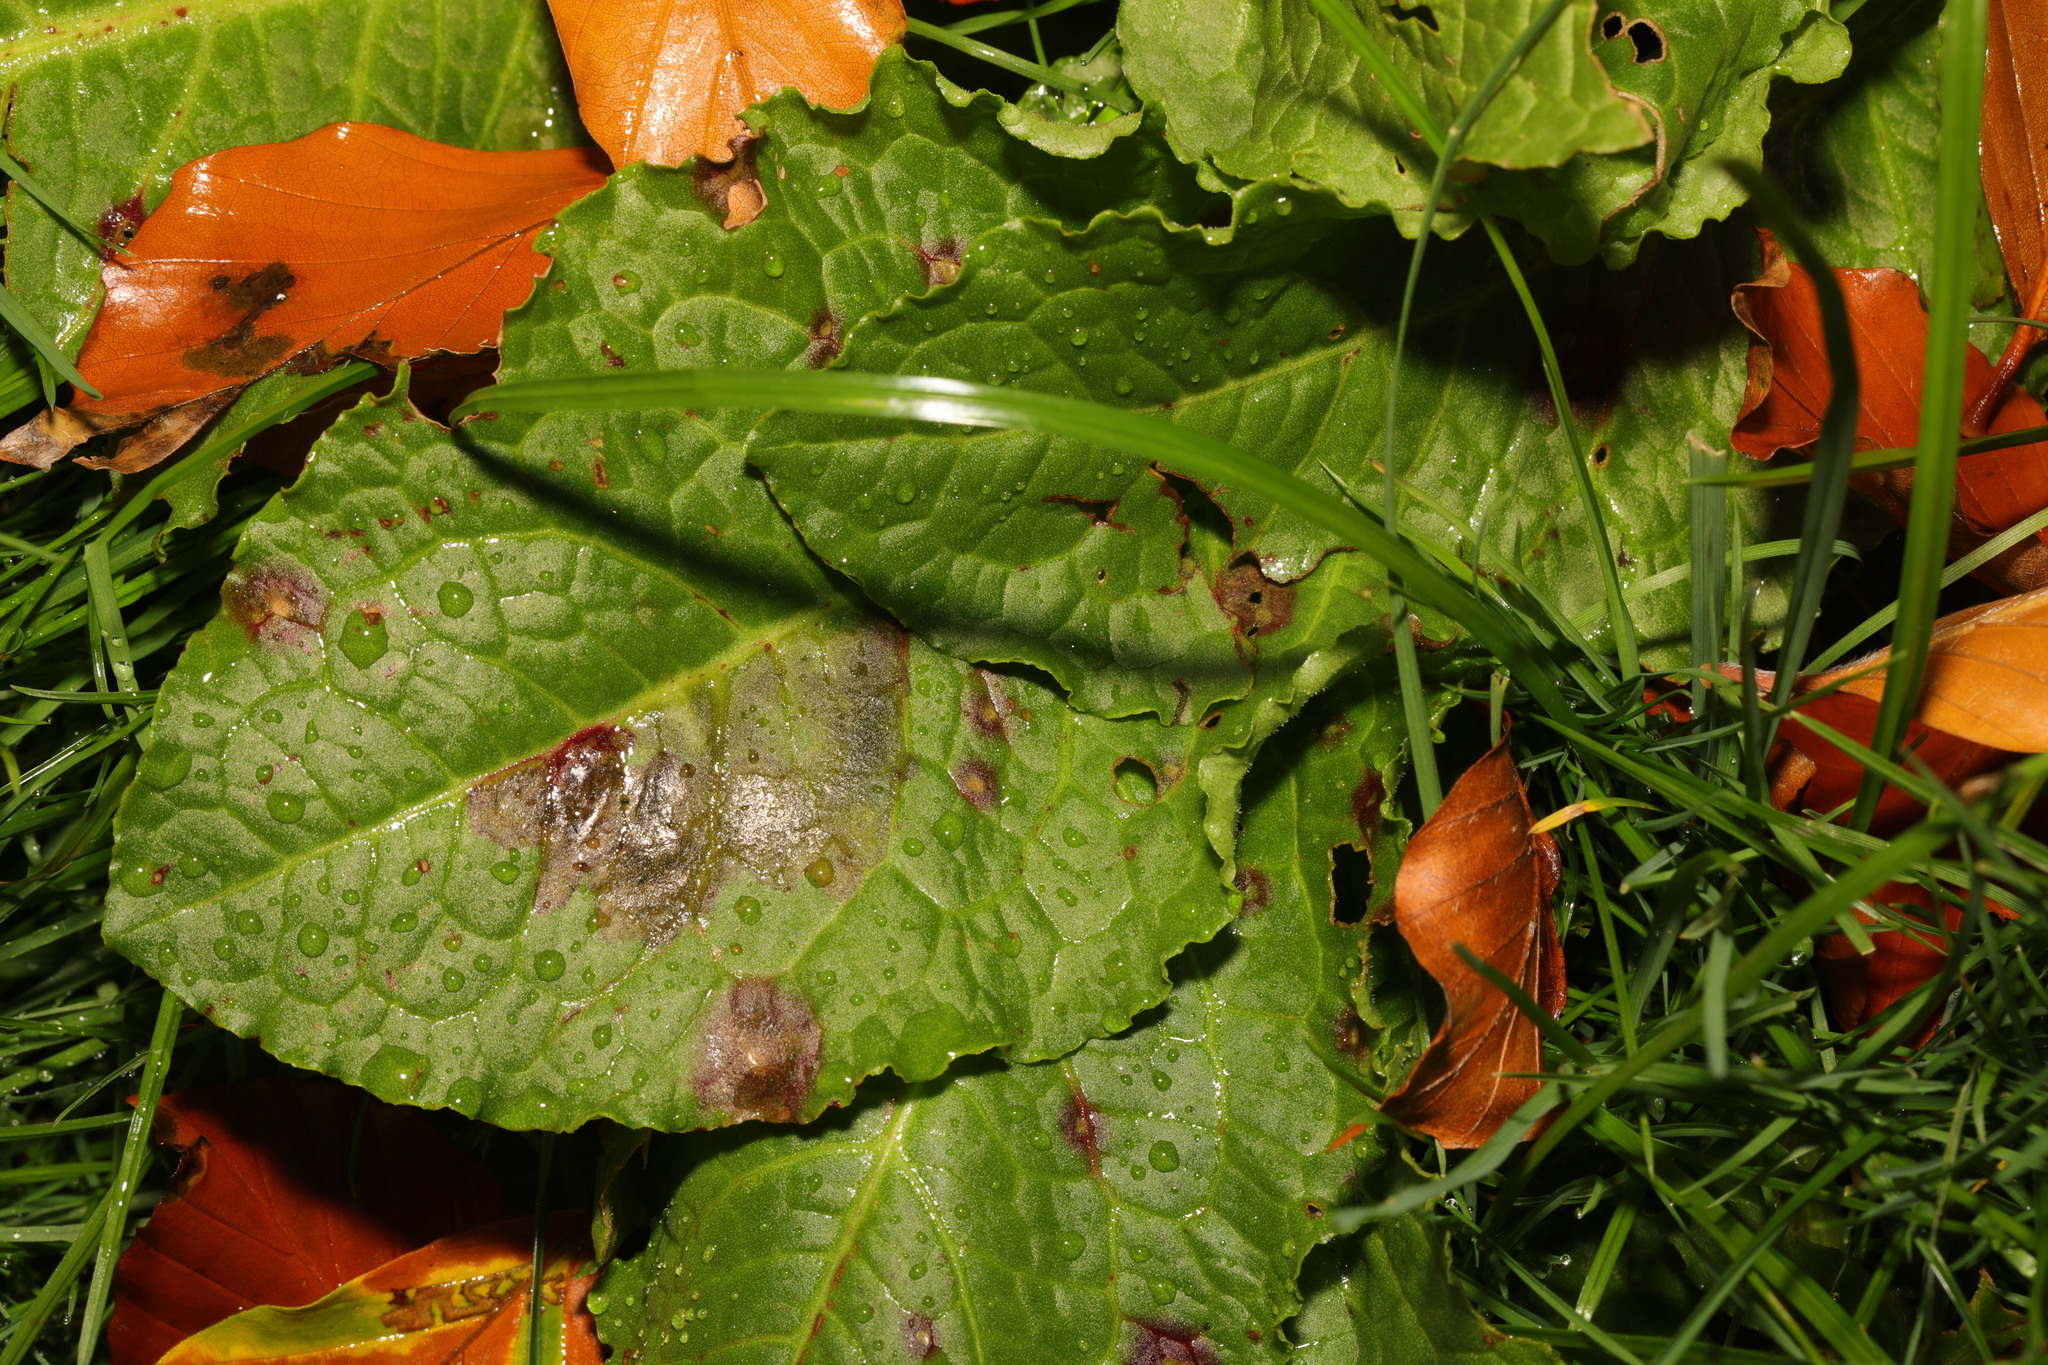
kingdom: Plantae
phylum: Tracheophyta
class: Magnoliopsida
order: Caryophyllales
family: Polygonaceae
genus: Rumex
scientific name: Rumex obtusifolius
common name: Bitter dock
